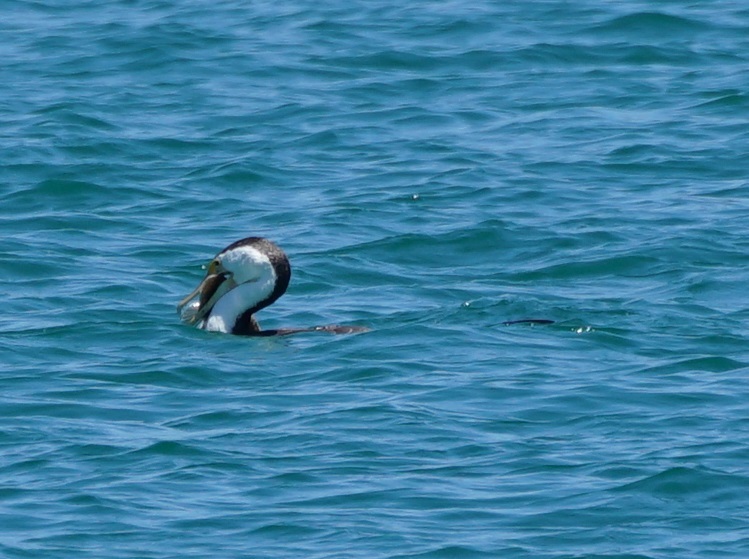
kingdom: Animalia
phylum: Chordata
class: Aves
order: Suliformes
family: Phalacrocoracidae
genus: Phalacrocorax
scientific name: Phalacrocorax varius
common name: Pied cormorant
